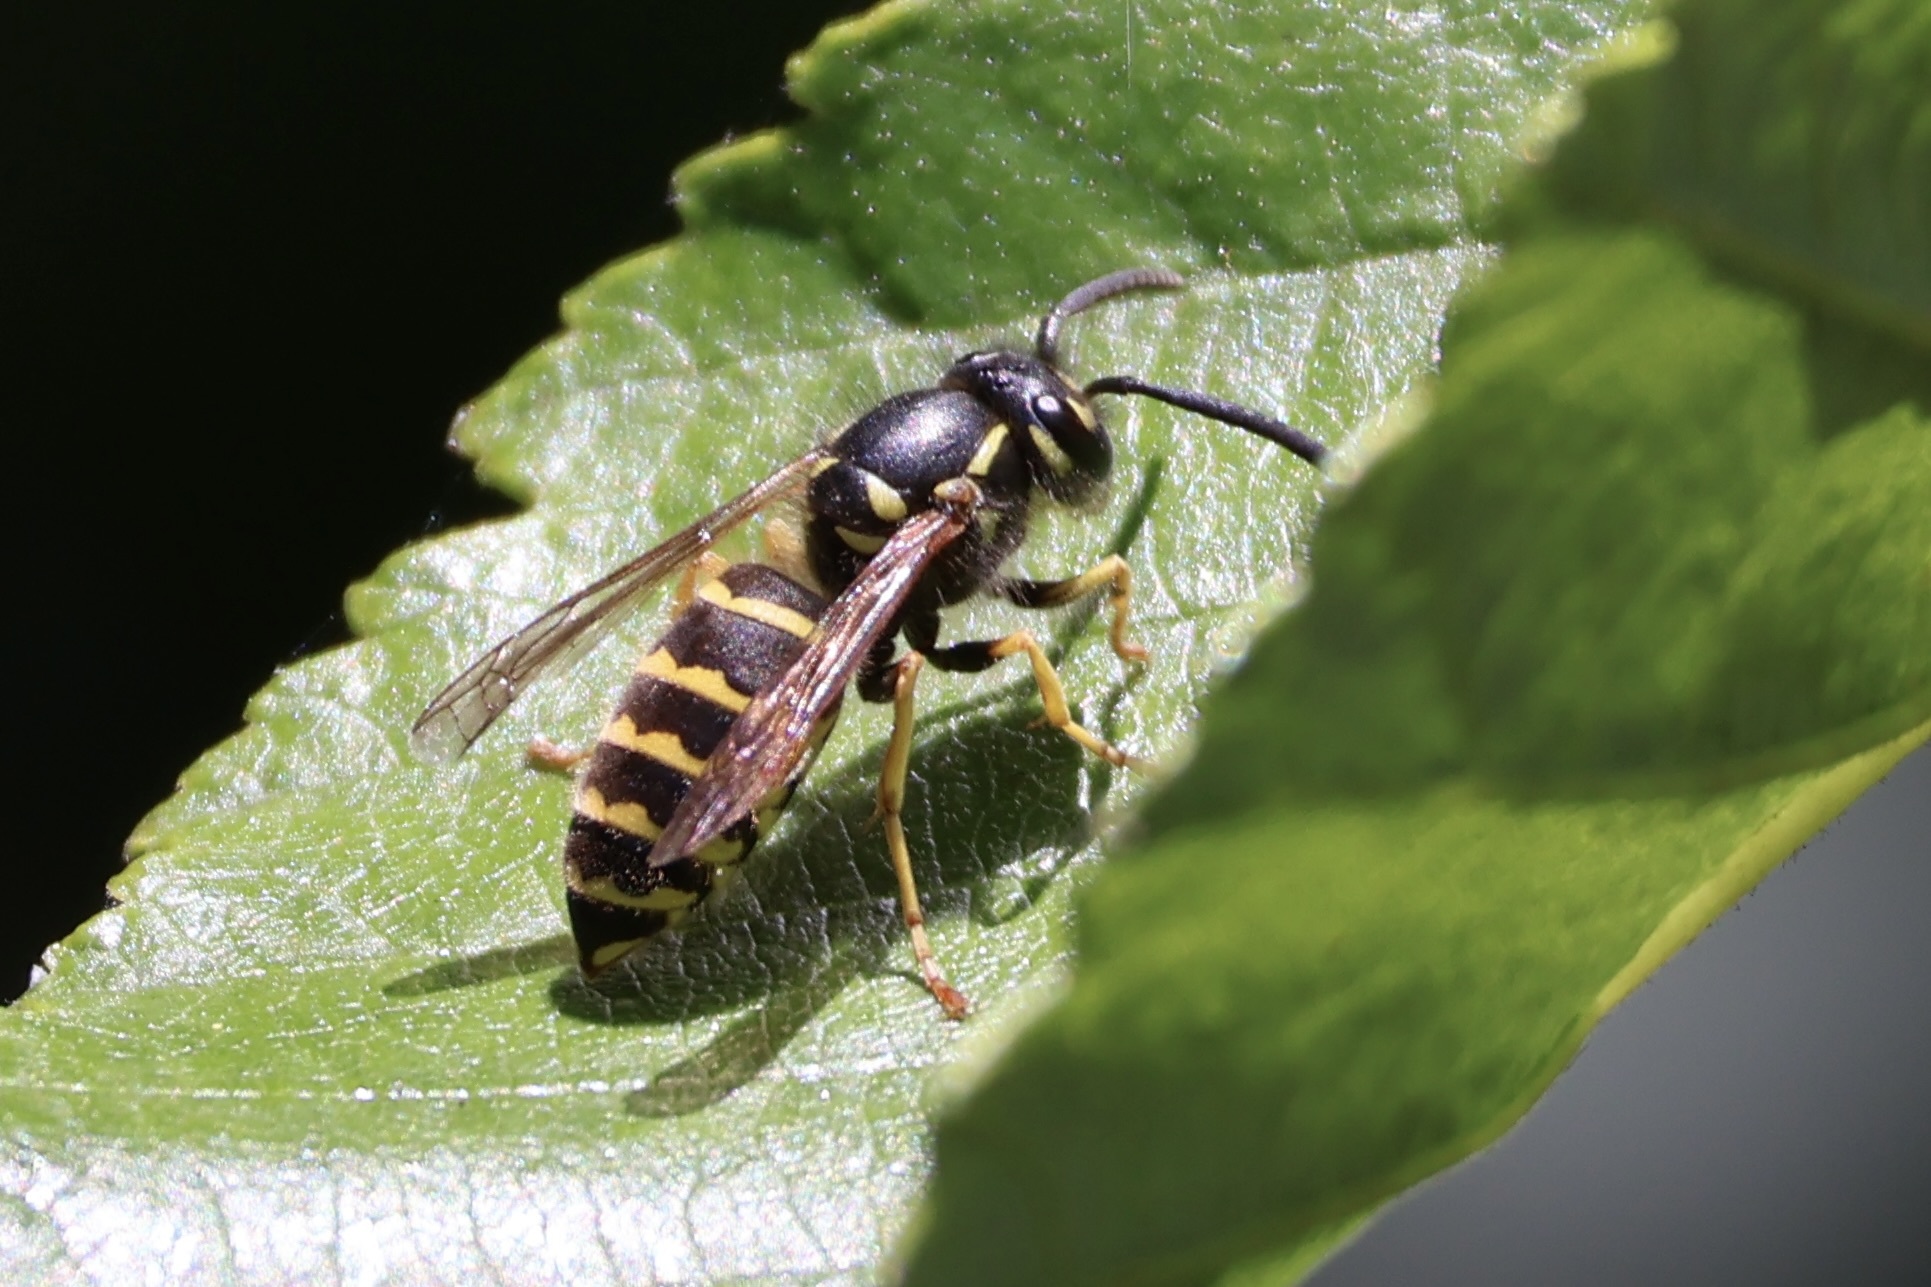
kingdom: Animalia
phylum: Arthropoda
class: Insecta
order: Hymenoptera
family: Vespidae
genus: Vespula
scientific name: Vespula alascensis
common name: Alaska yellowjacket
